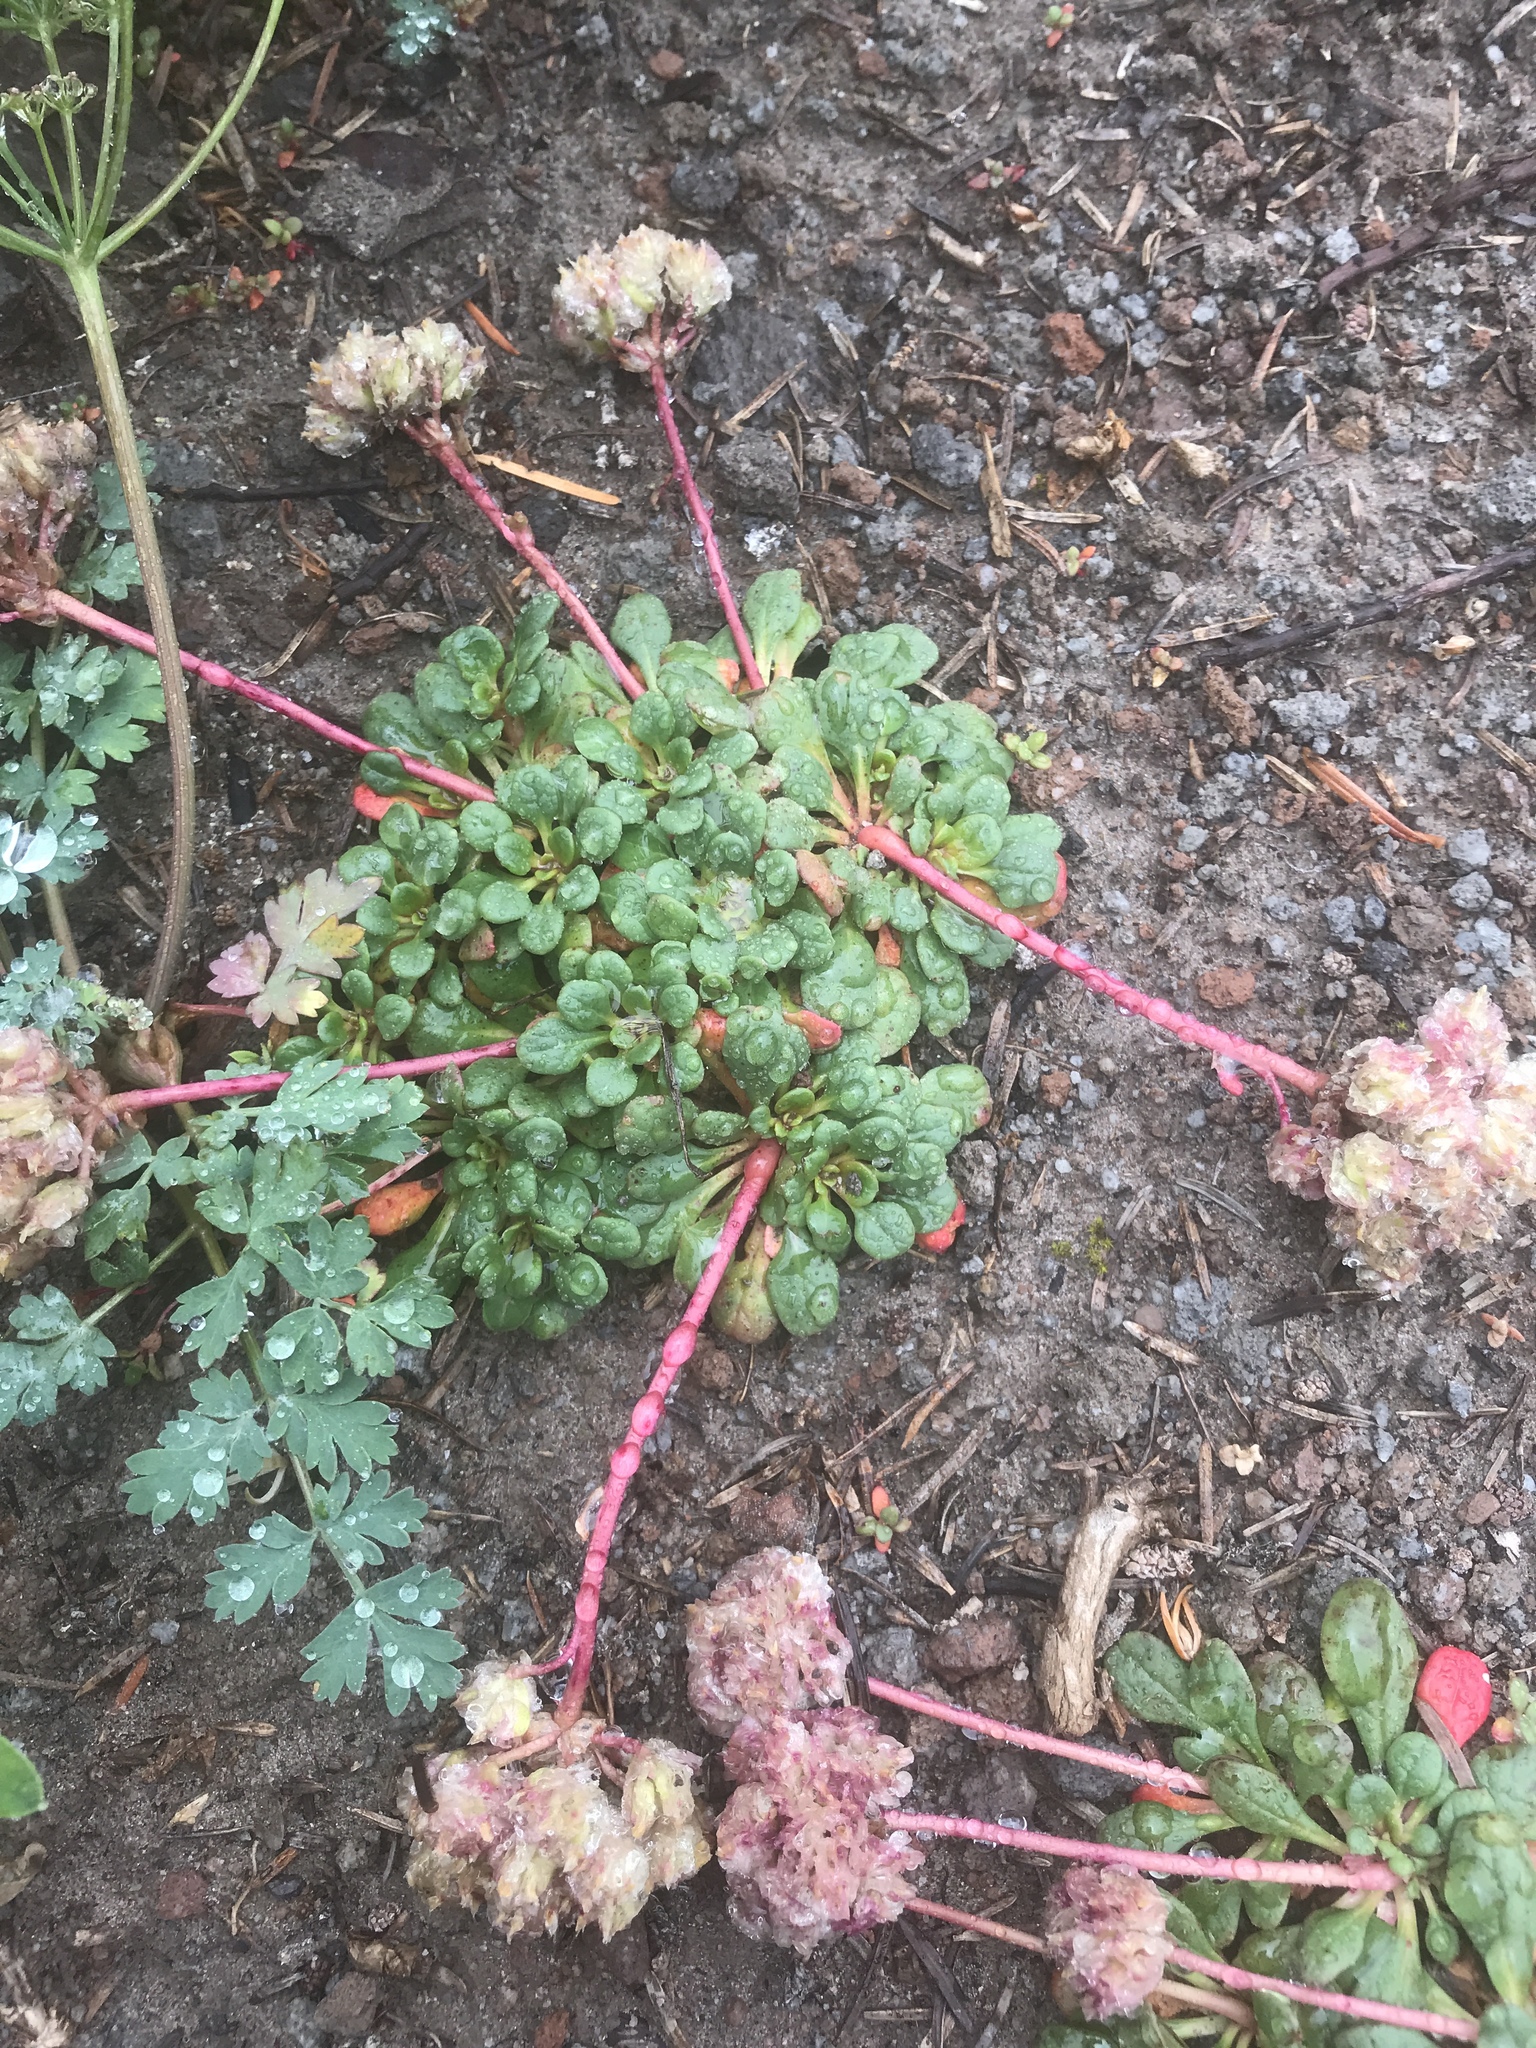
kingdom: Plantae
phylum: Tracheophyta
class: Magnoliopsida
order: Caryophyllales
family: Montiaceae
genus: Calyptridium
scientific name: Calyptridium umbellatum
